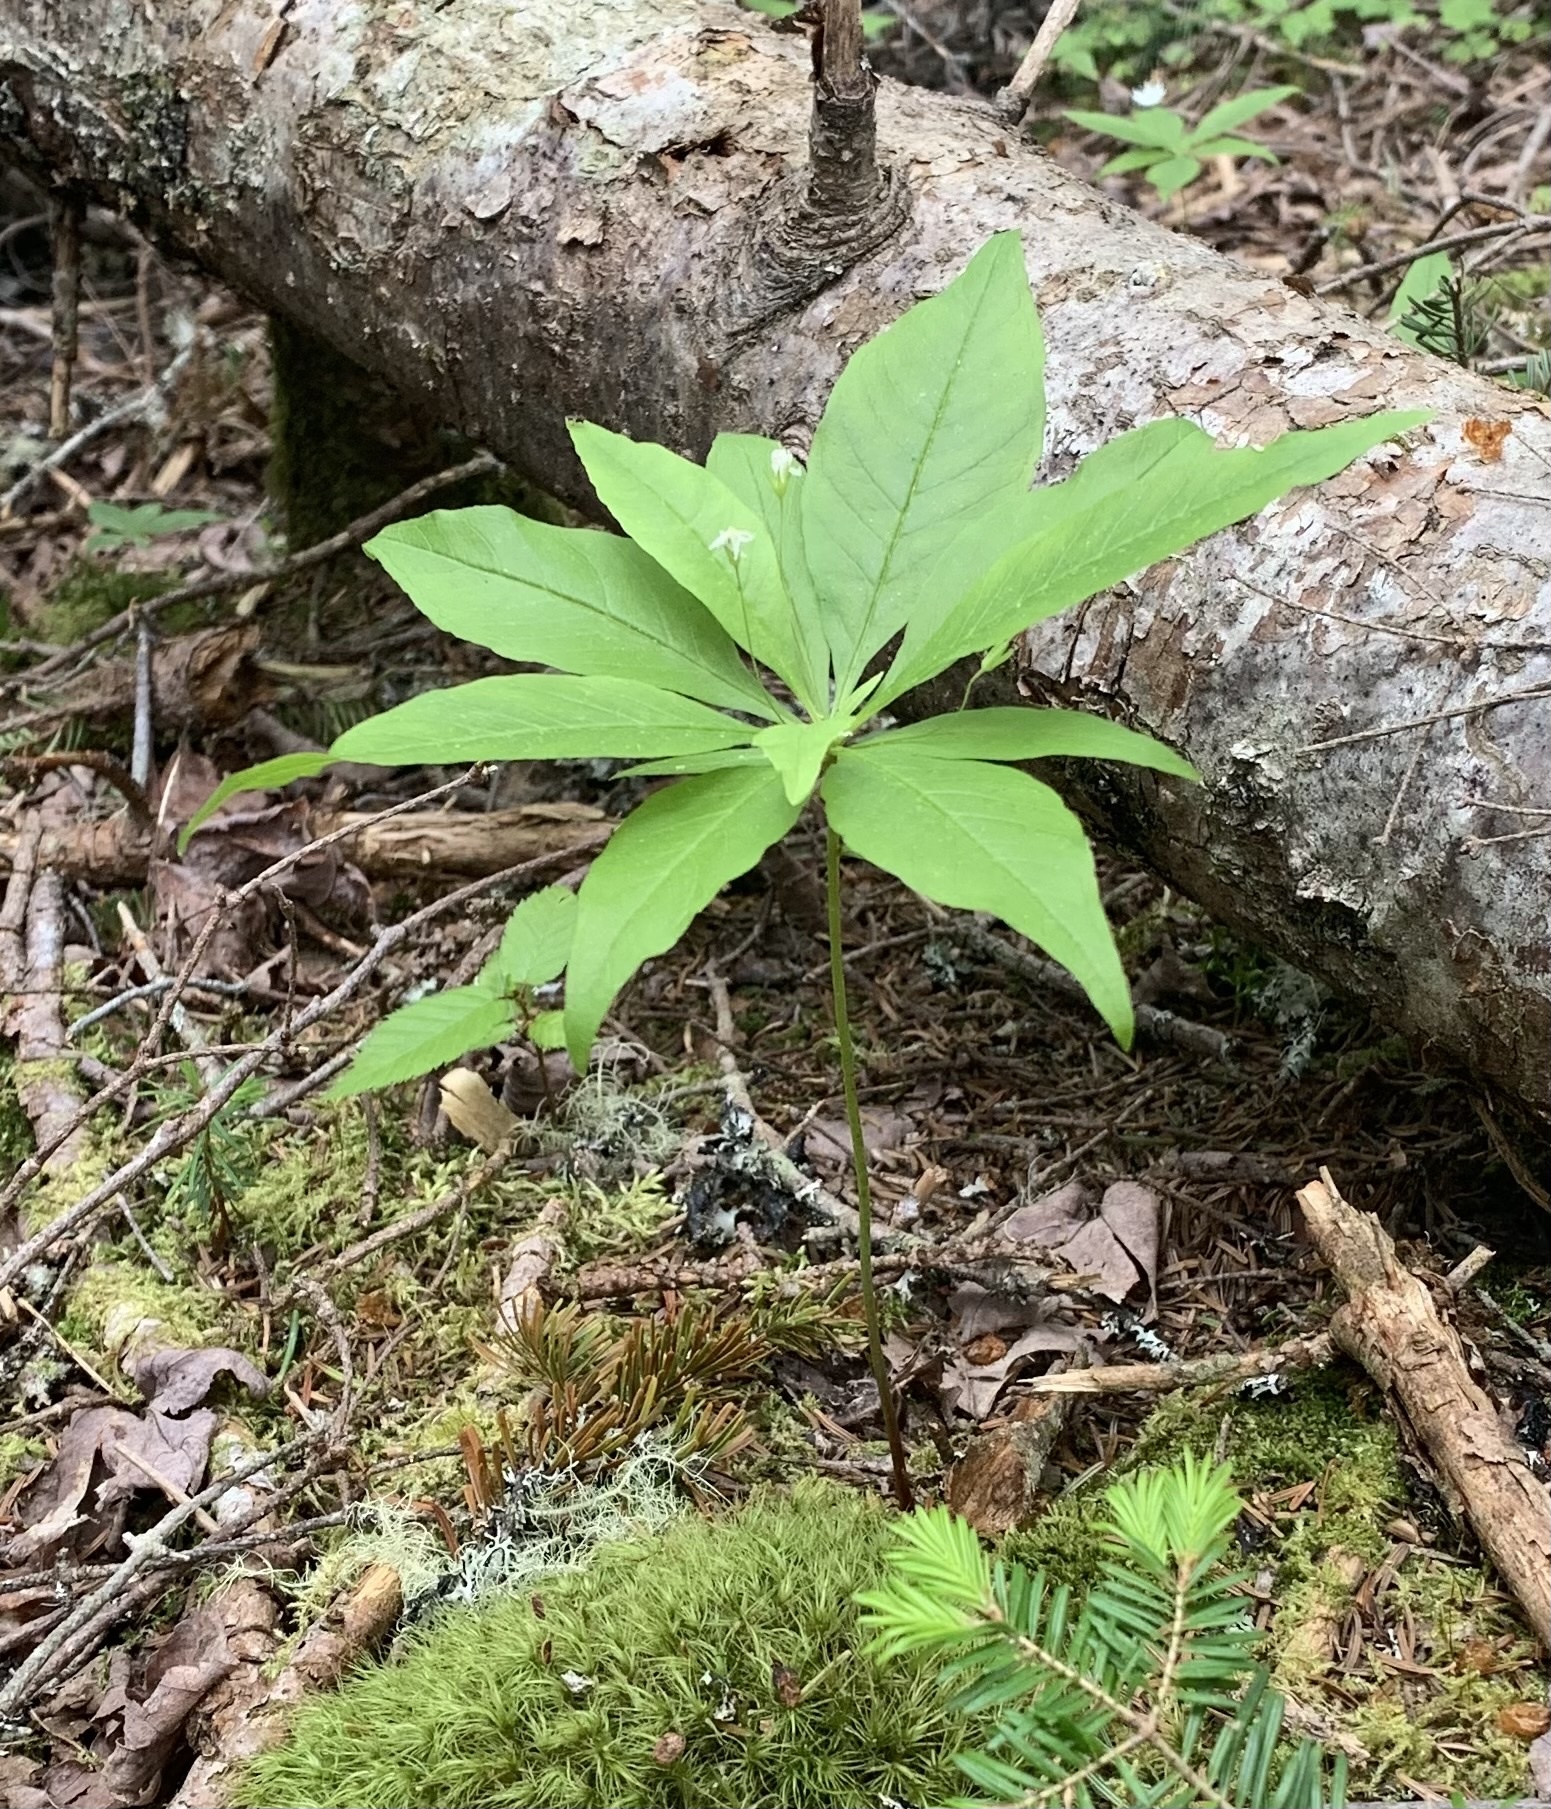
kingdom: Plantae
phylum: Tracheophyta
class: Magnoliopsida
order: Ericales
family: Primulaceae
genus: Lysimachia
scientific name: Lysimachia borealis
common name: American starflower
